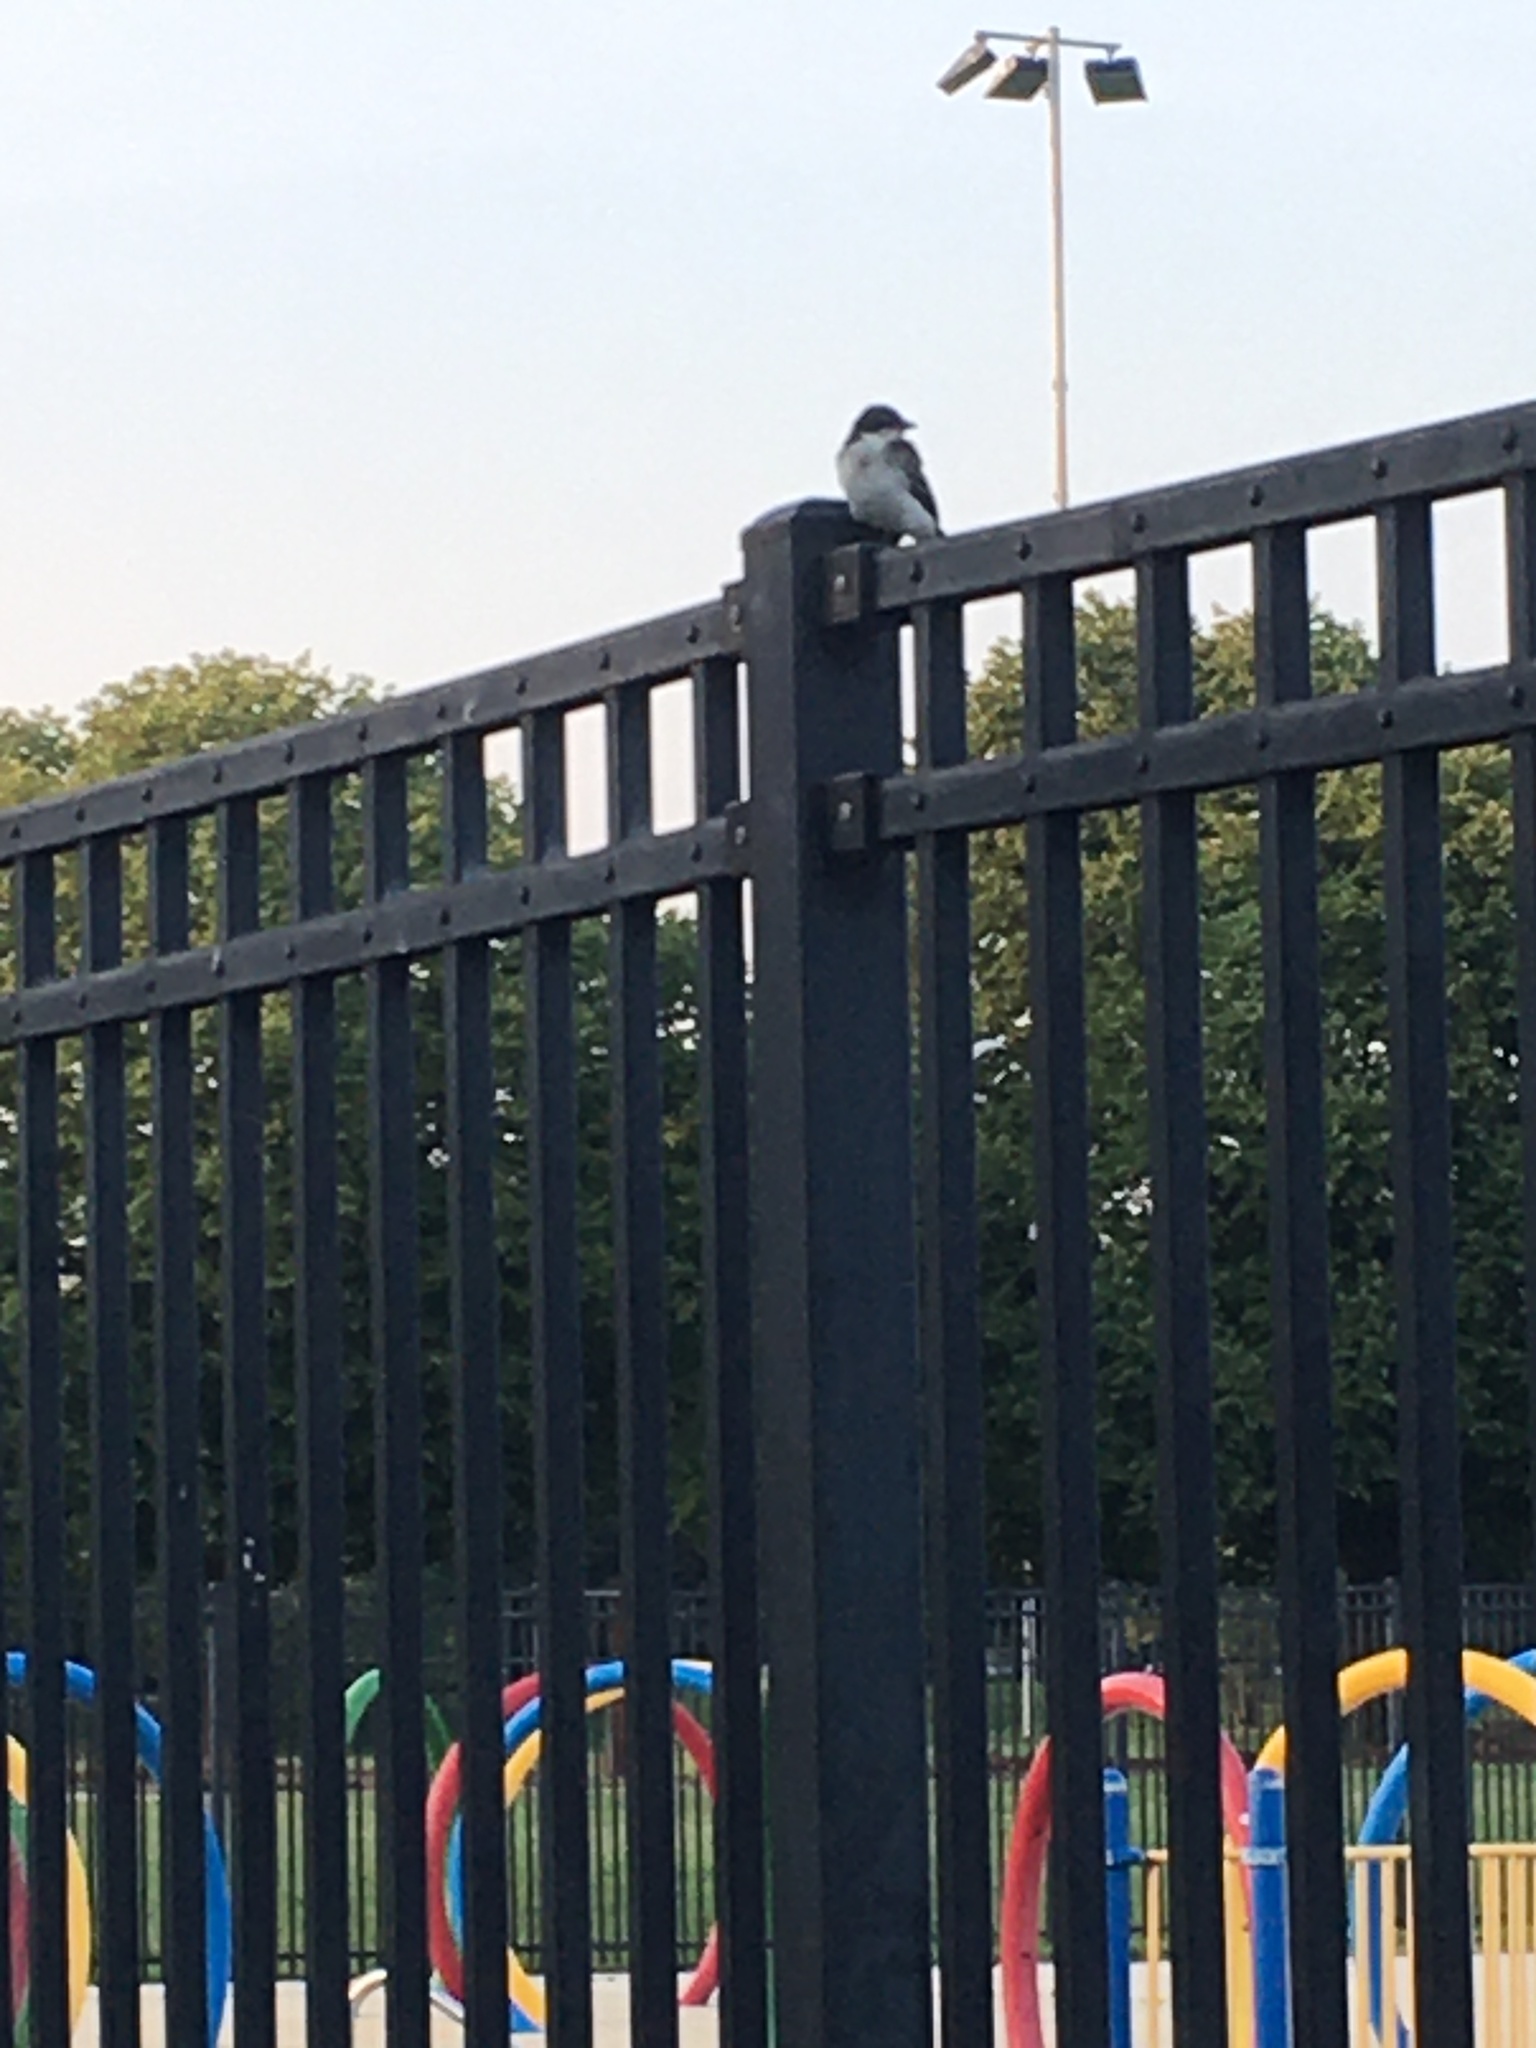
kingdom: Animalia
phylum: Chordata
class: Aves
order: Passeriformes
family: Tyrannidae
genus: Tyrannus
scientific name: Tyrannus tyrannus
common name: Eastern kingbird
